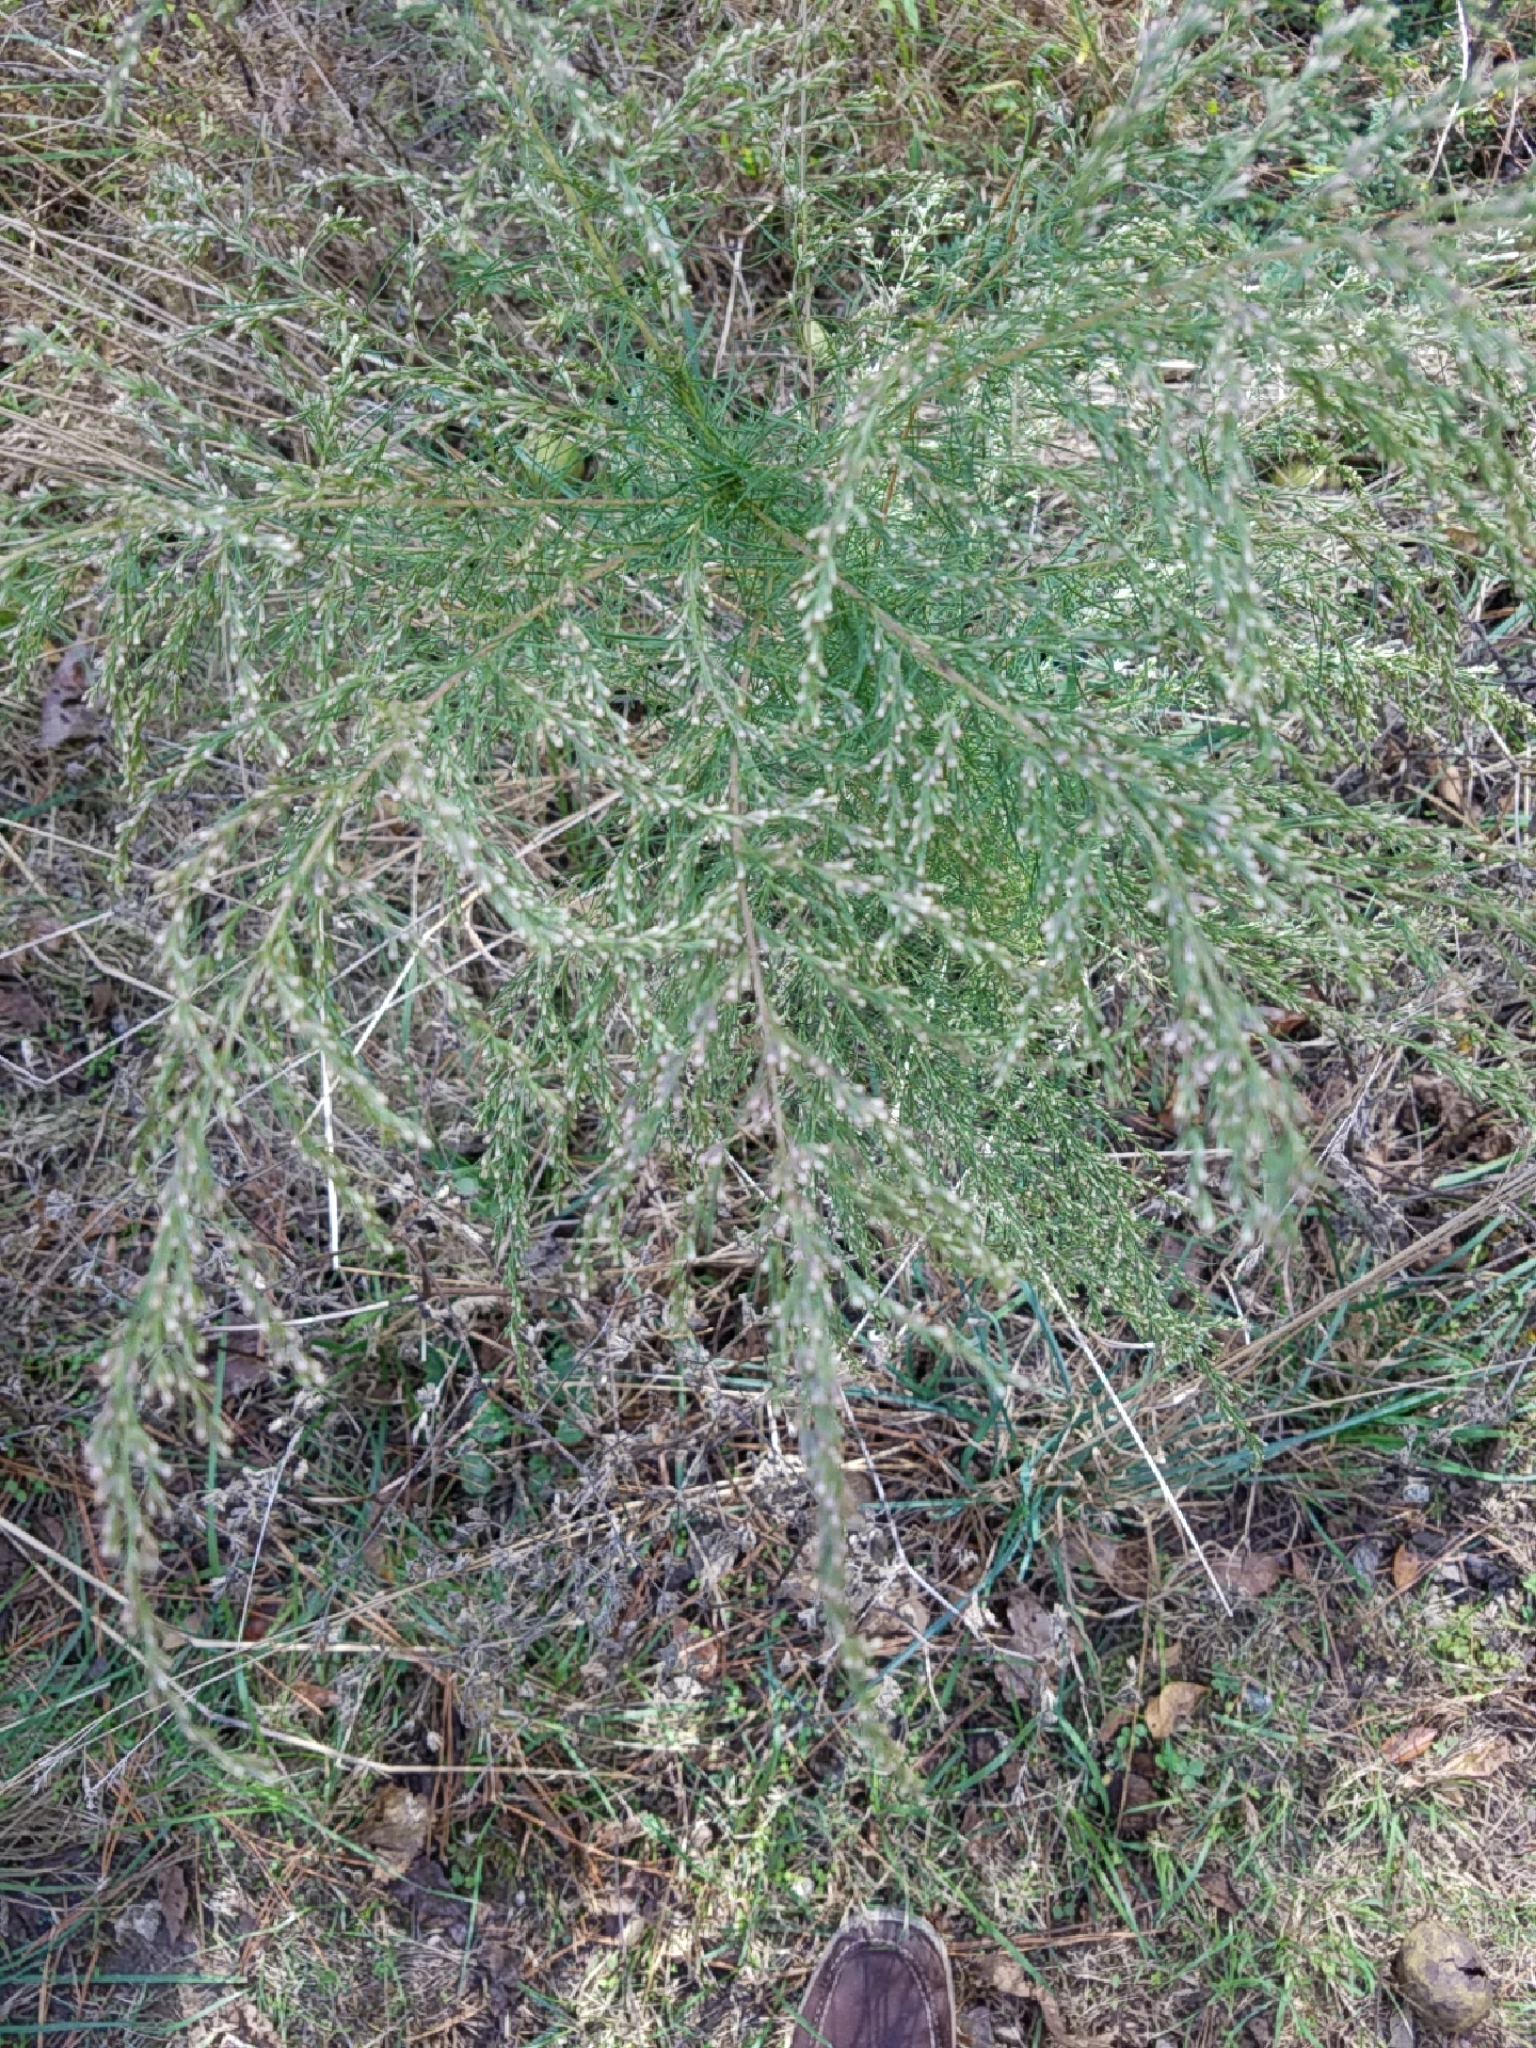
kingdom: Plantae
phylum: Tracheophyta
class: Magnoliopsida
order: Asterales
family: Asteraceae
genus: Eupatorium
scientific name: Eupatorium capillifolium
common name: Dog-fennel
